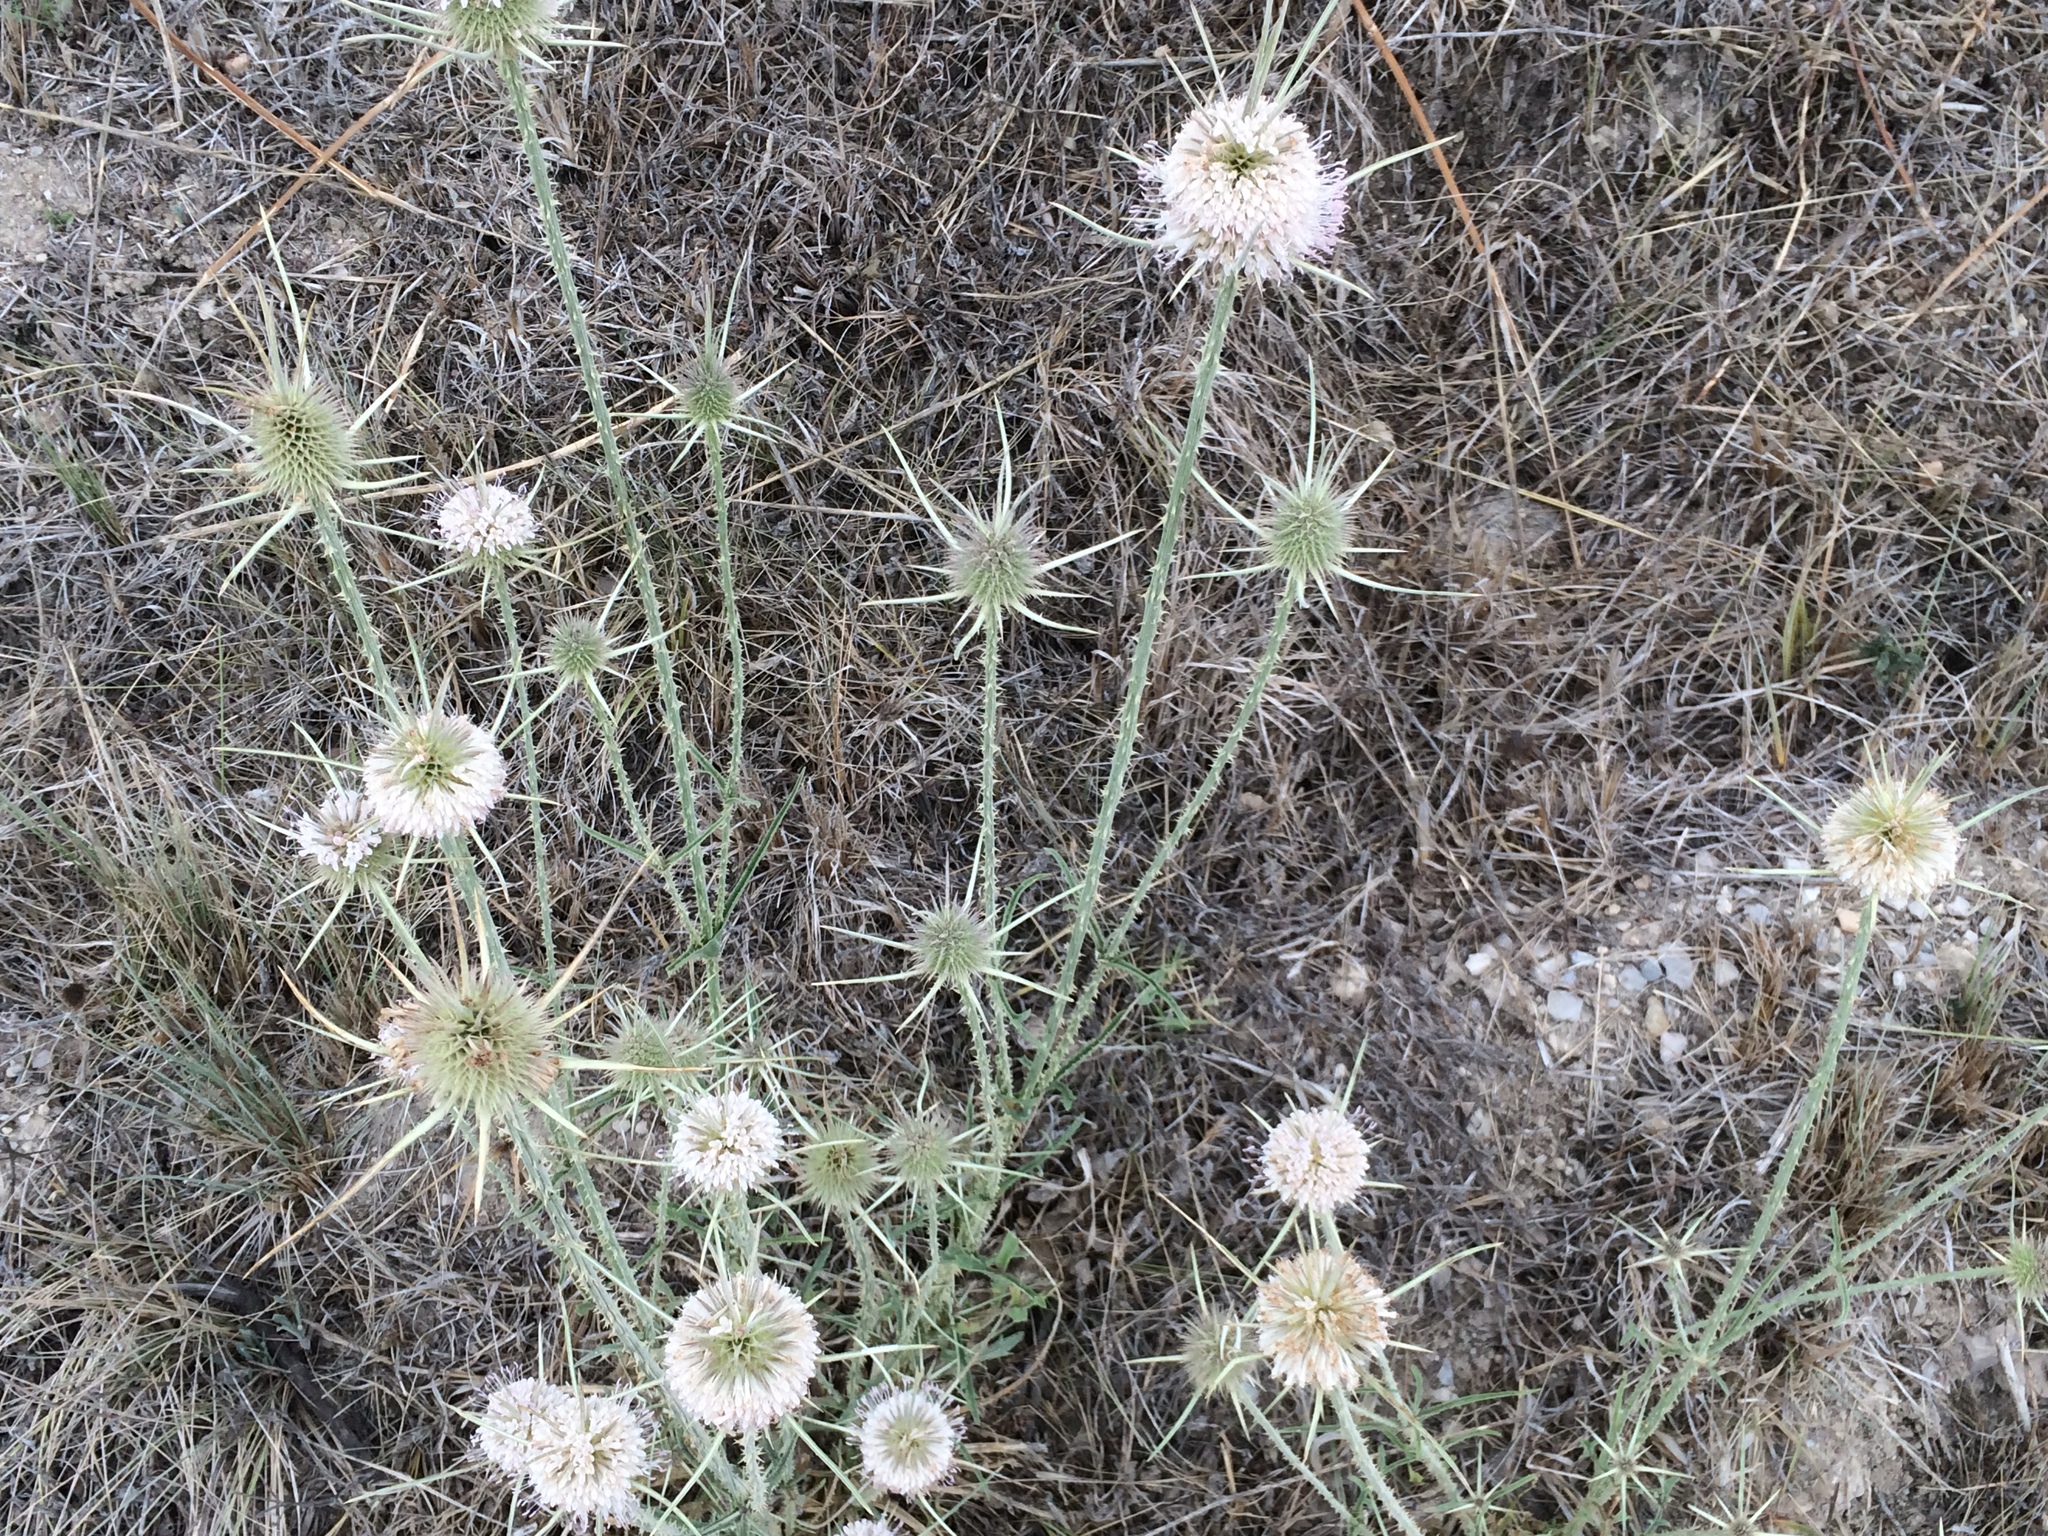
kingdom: Plantae
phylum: Tracheophyta
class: Magnoliopsida
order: Dipsacales
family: Caprifoliaceae
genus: Dipsacus
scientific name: Dipsacus comosus
